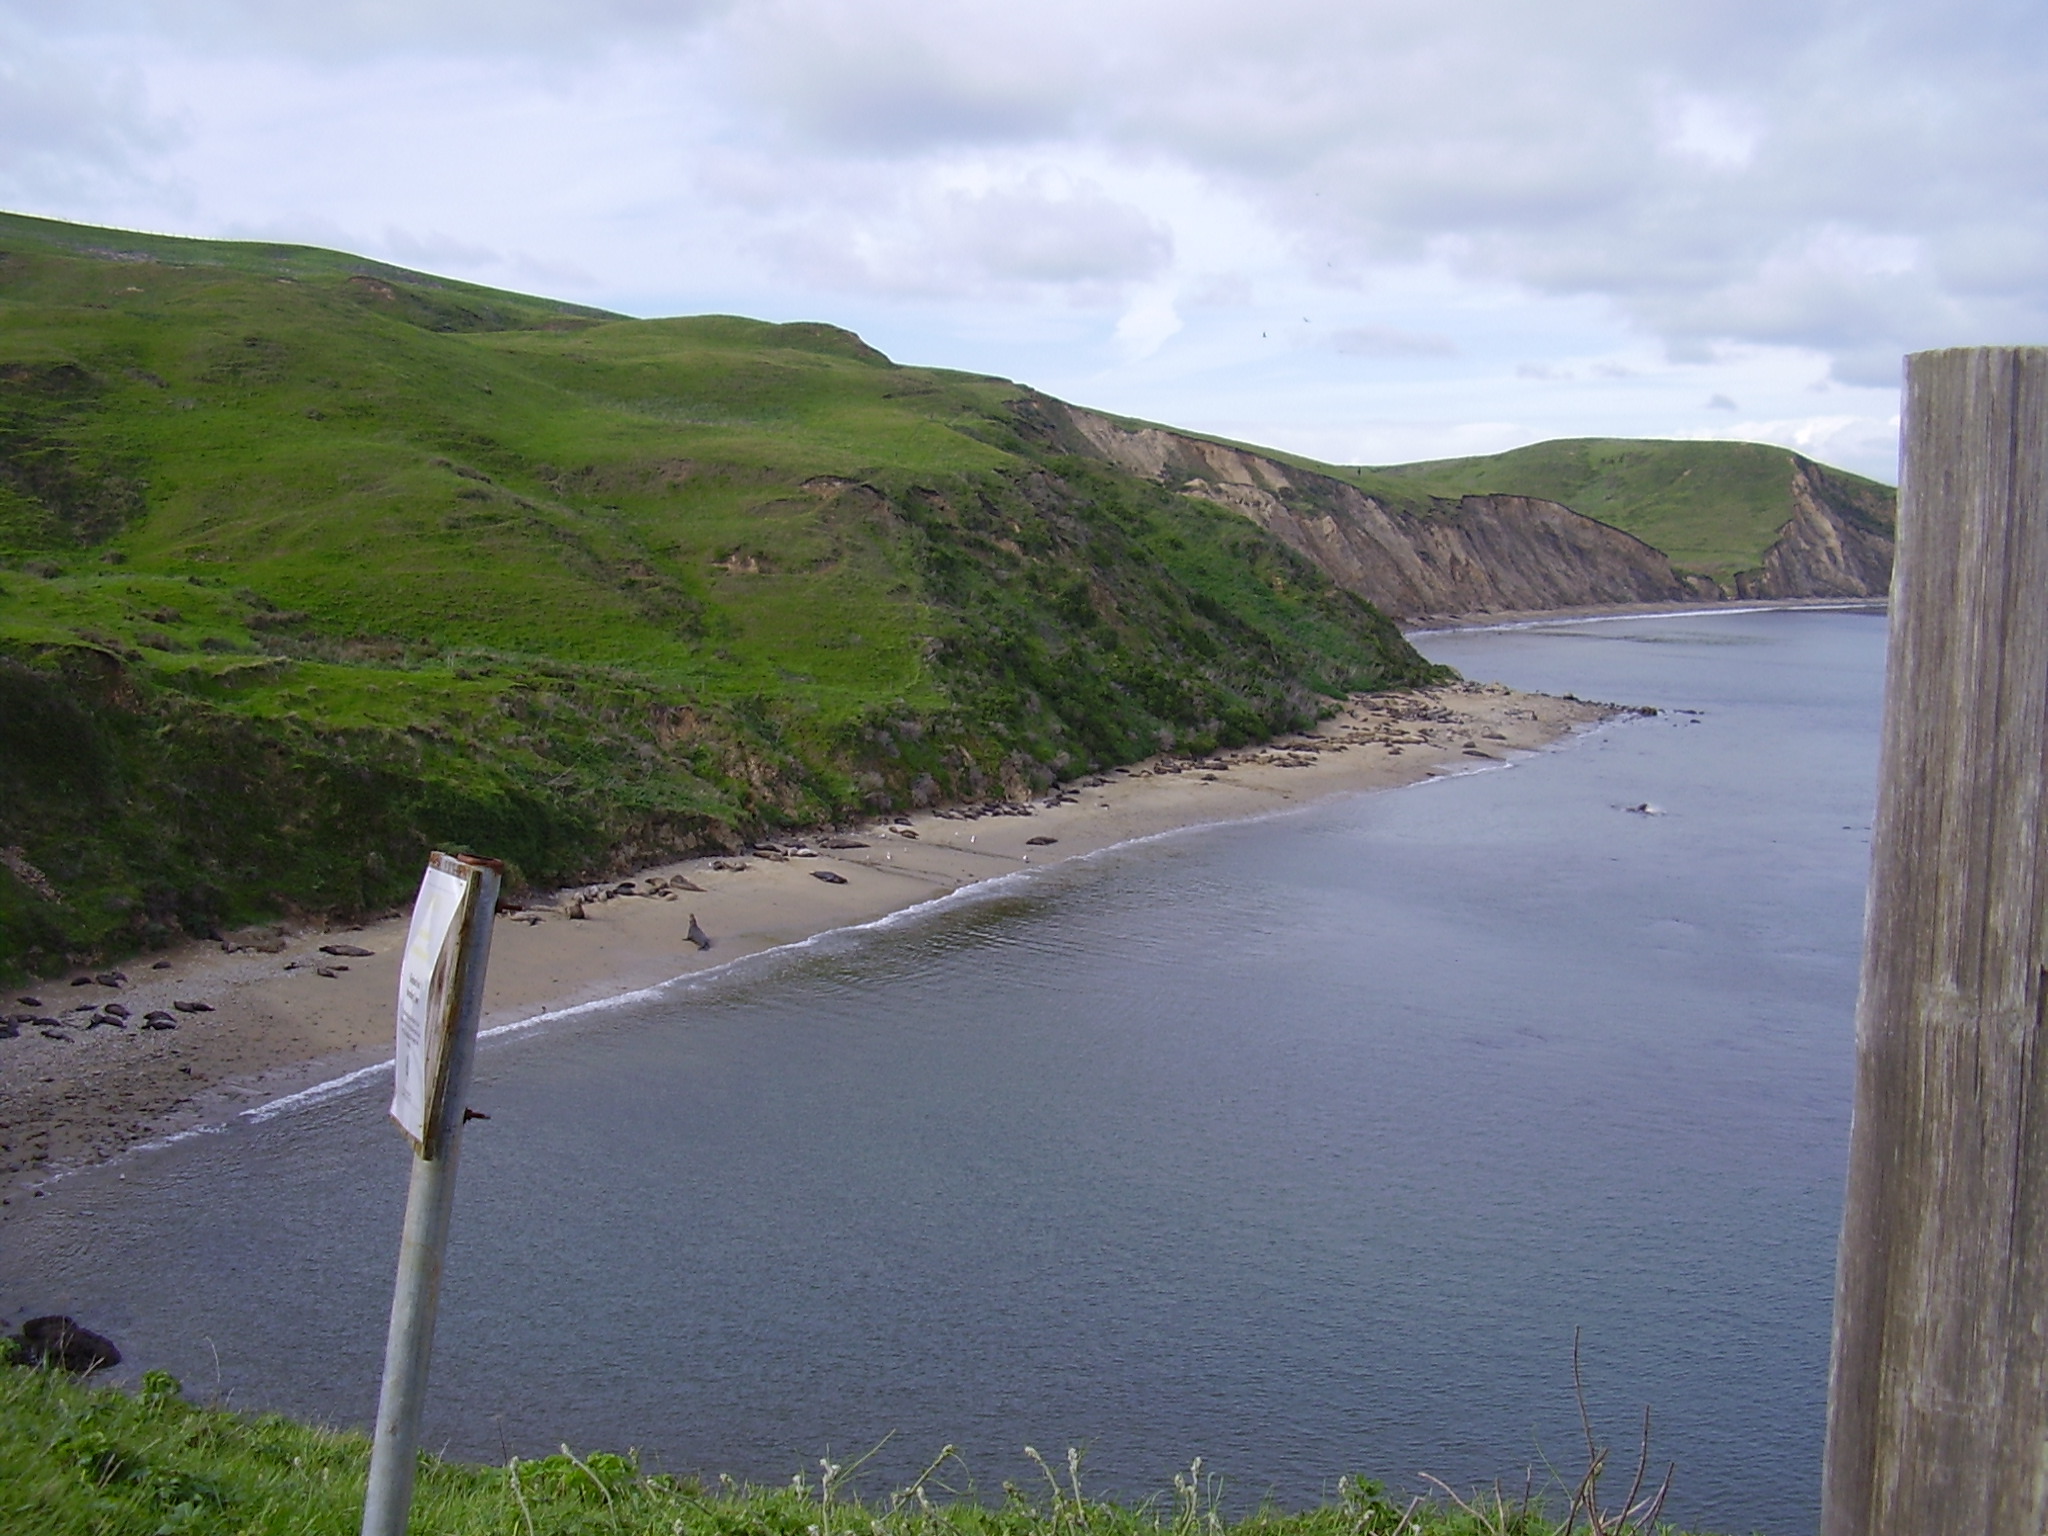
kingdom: Animalia
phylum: Chordata
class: Mammalia
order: Carnivora
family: Phocidae
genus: Mirounga
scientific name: Mirounga angustirostris
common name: Northern elephant seal
